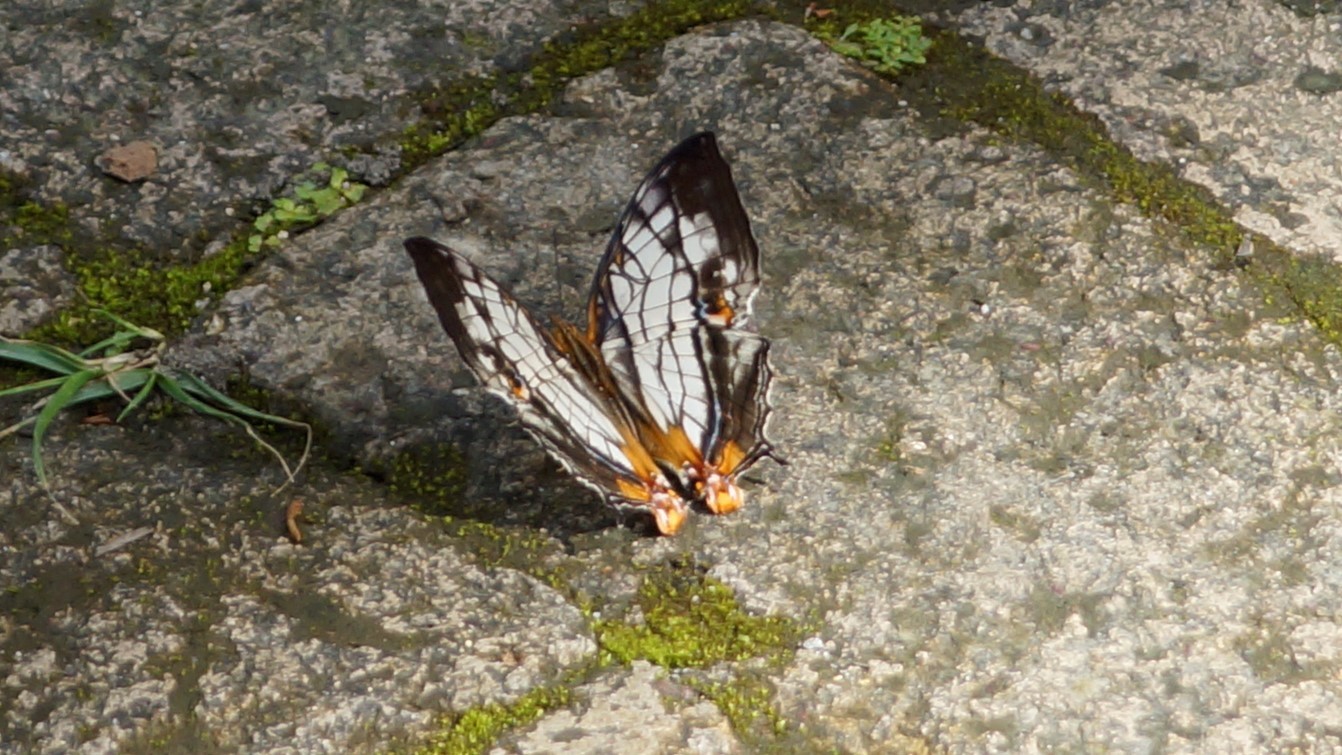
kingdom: Animalia
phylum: Arthropoda
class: Insecta
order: Lepidoptera
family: Nymphalidae
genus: Cyrestis
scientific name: Cyrestis thyodamas
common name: Common mapwing
